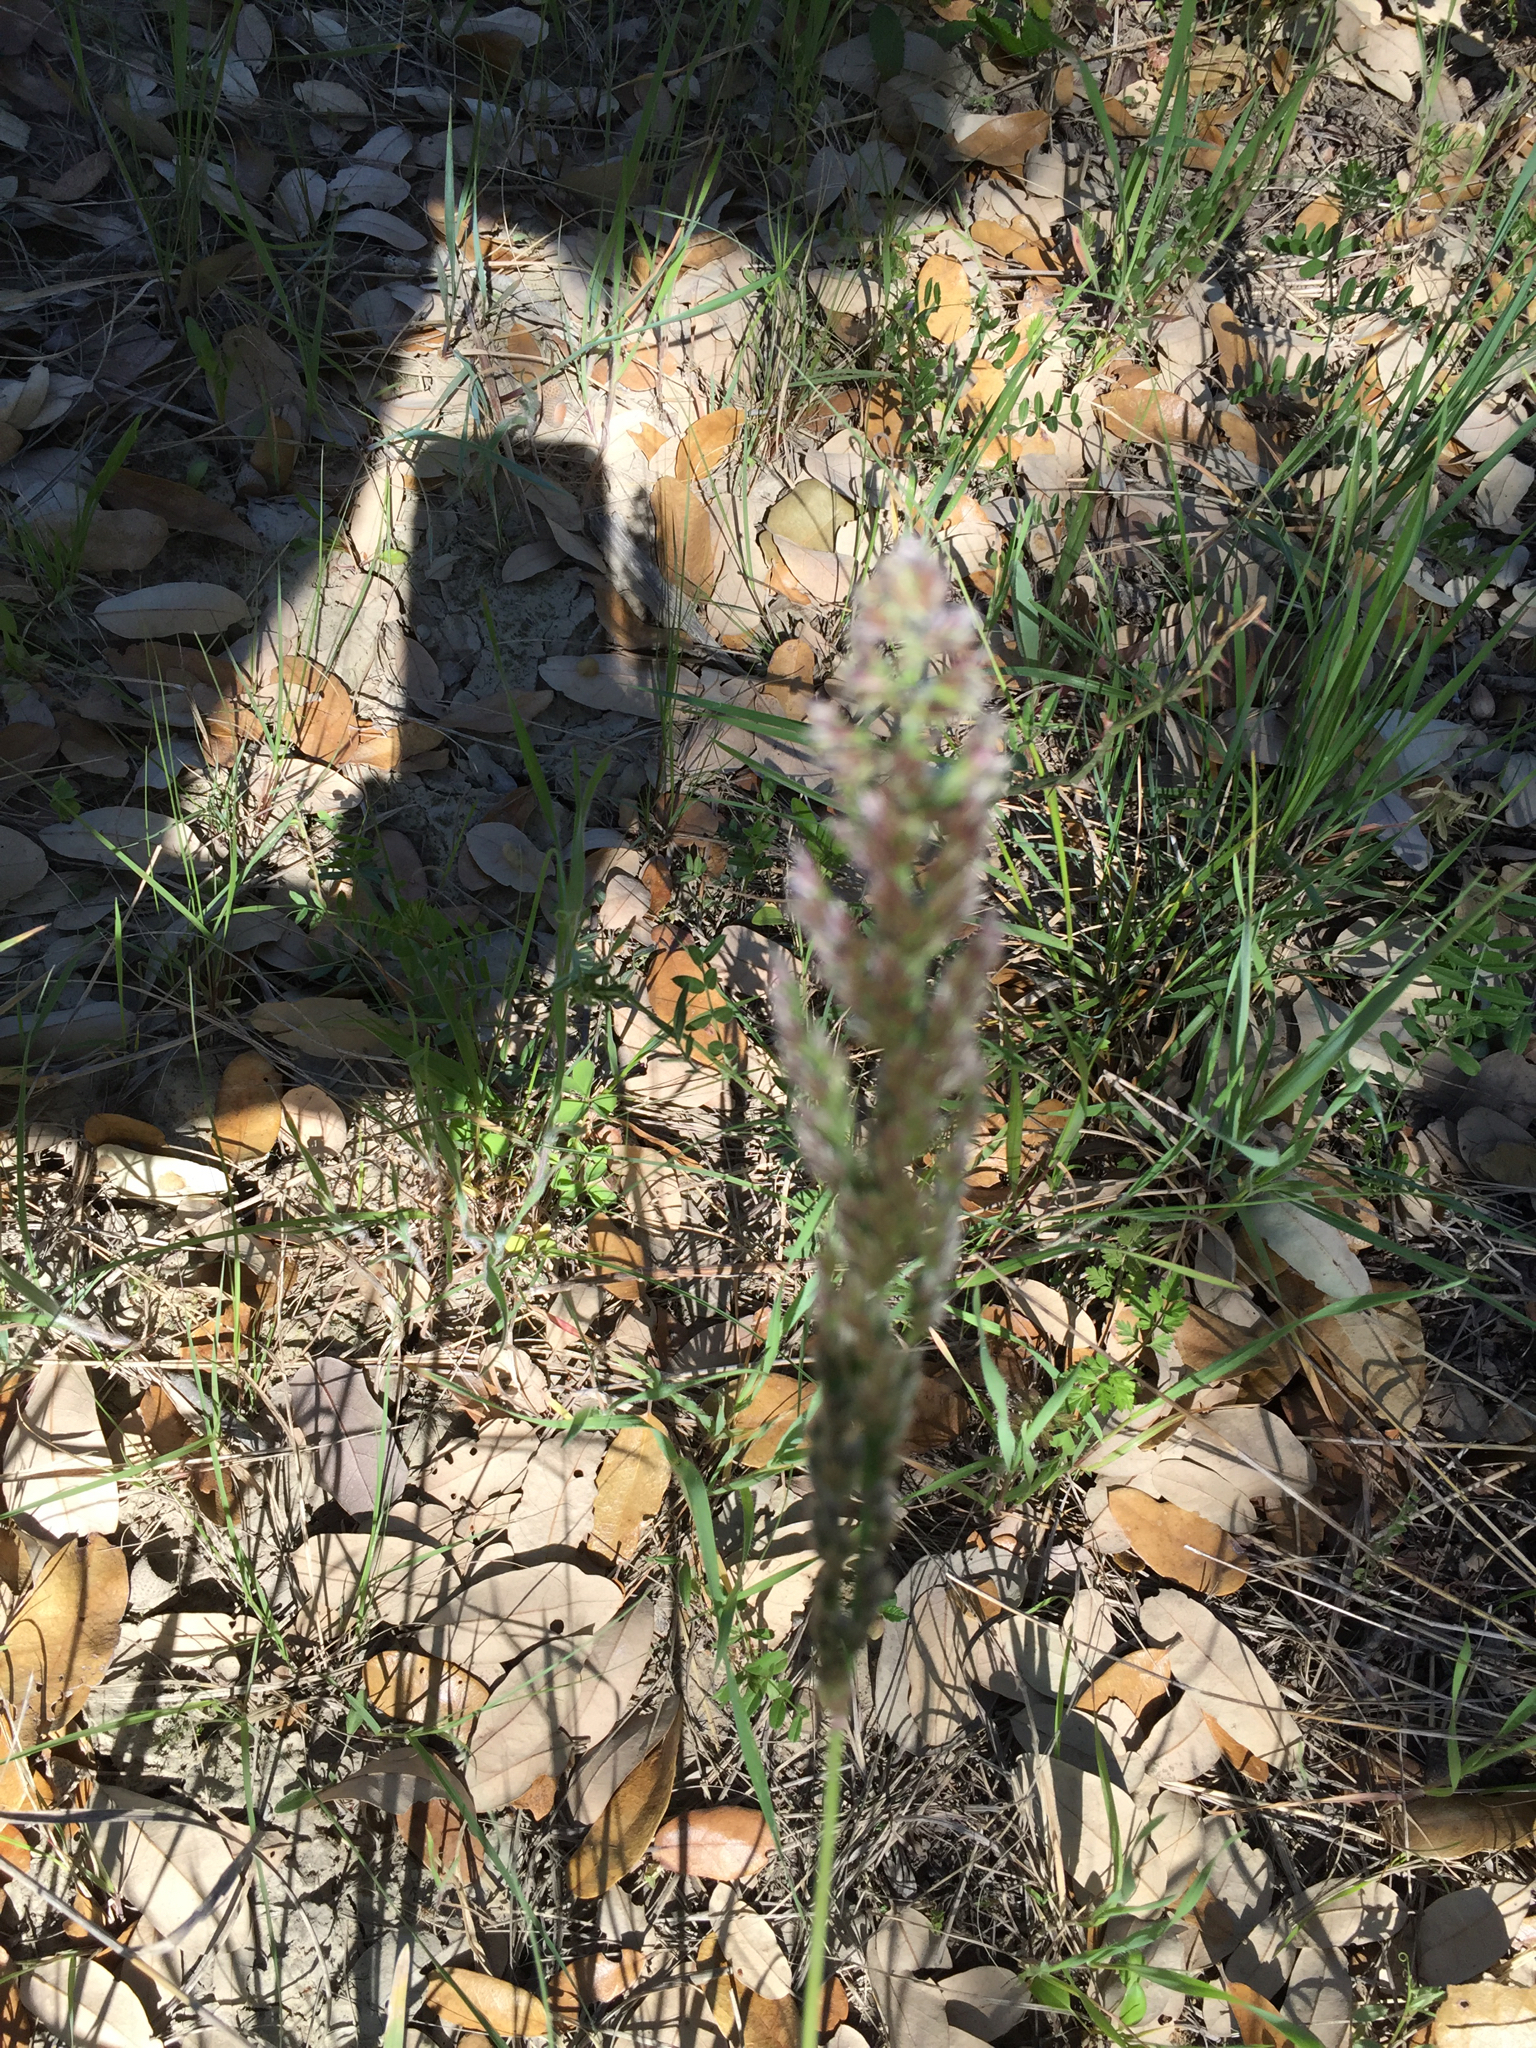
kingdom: Plantae
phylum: Tracheophyta
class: Liliopsida
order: Poales
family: Poaceae
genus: Poa
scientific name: Poa arachnifera
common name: Texas bluegrass
